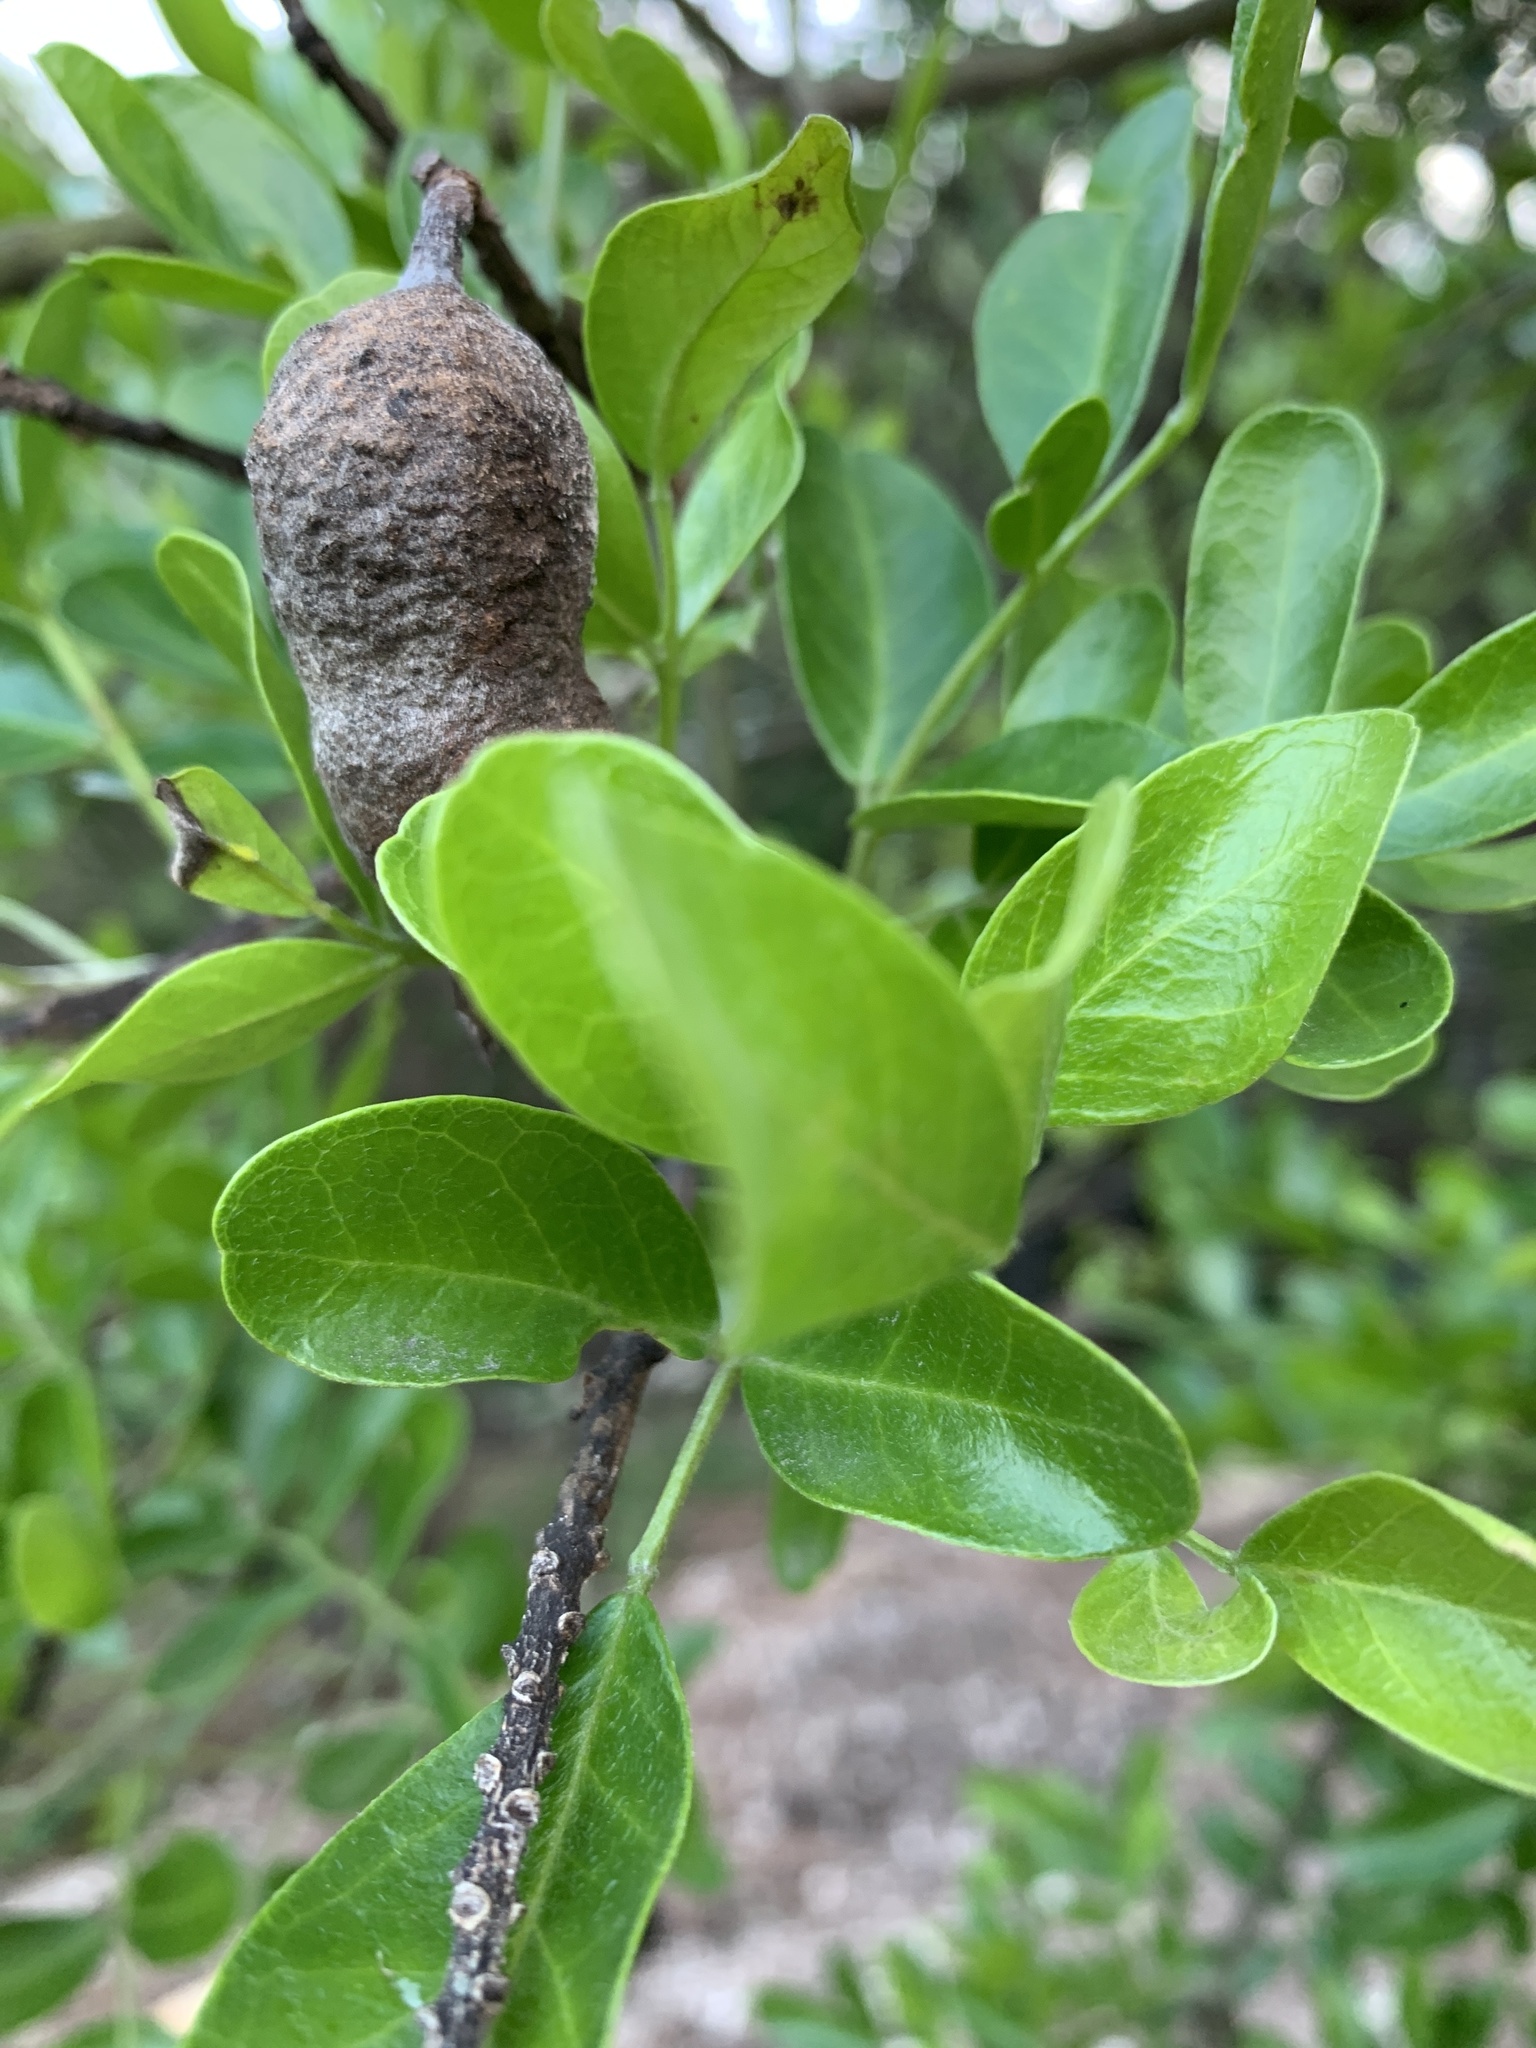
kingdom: Plantae
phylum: Tracheophyta
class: Magnoliopsida
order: Fabales
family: Fabaceae
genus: Dermatophyllum
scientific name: Dermatophyllum secundiflorum
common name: Texas-mountain-laurel
